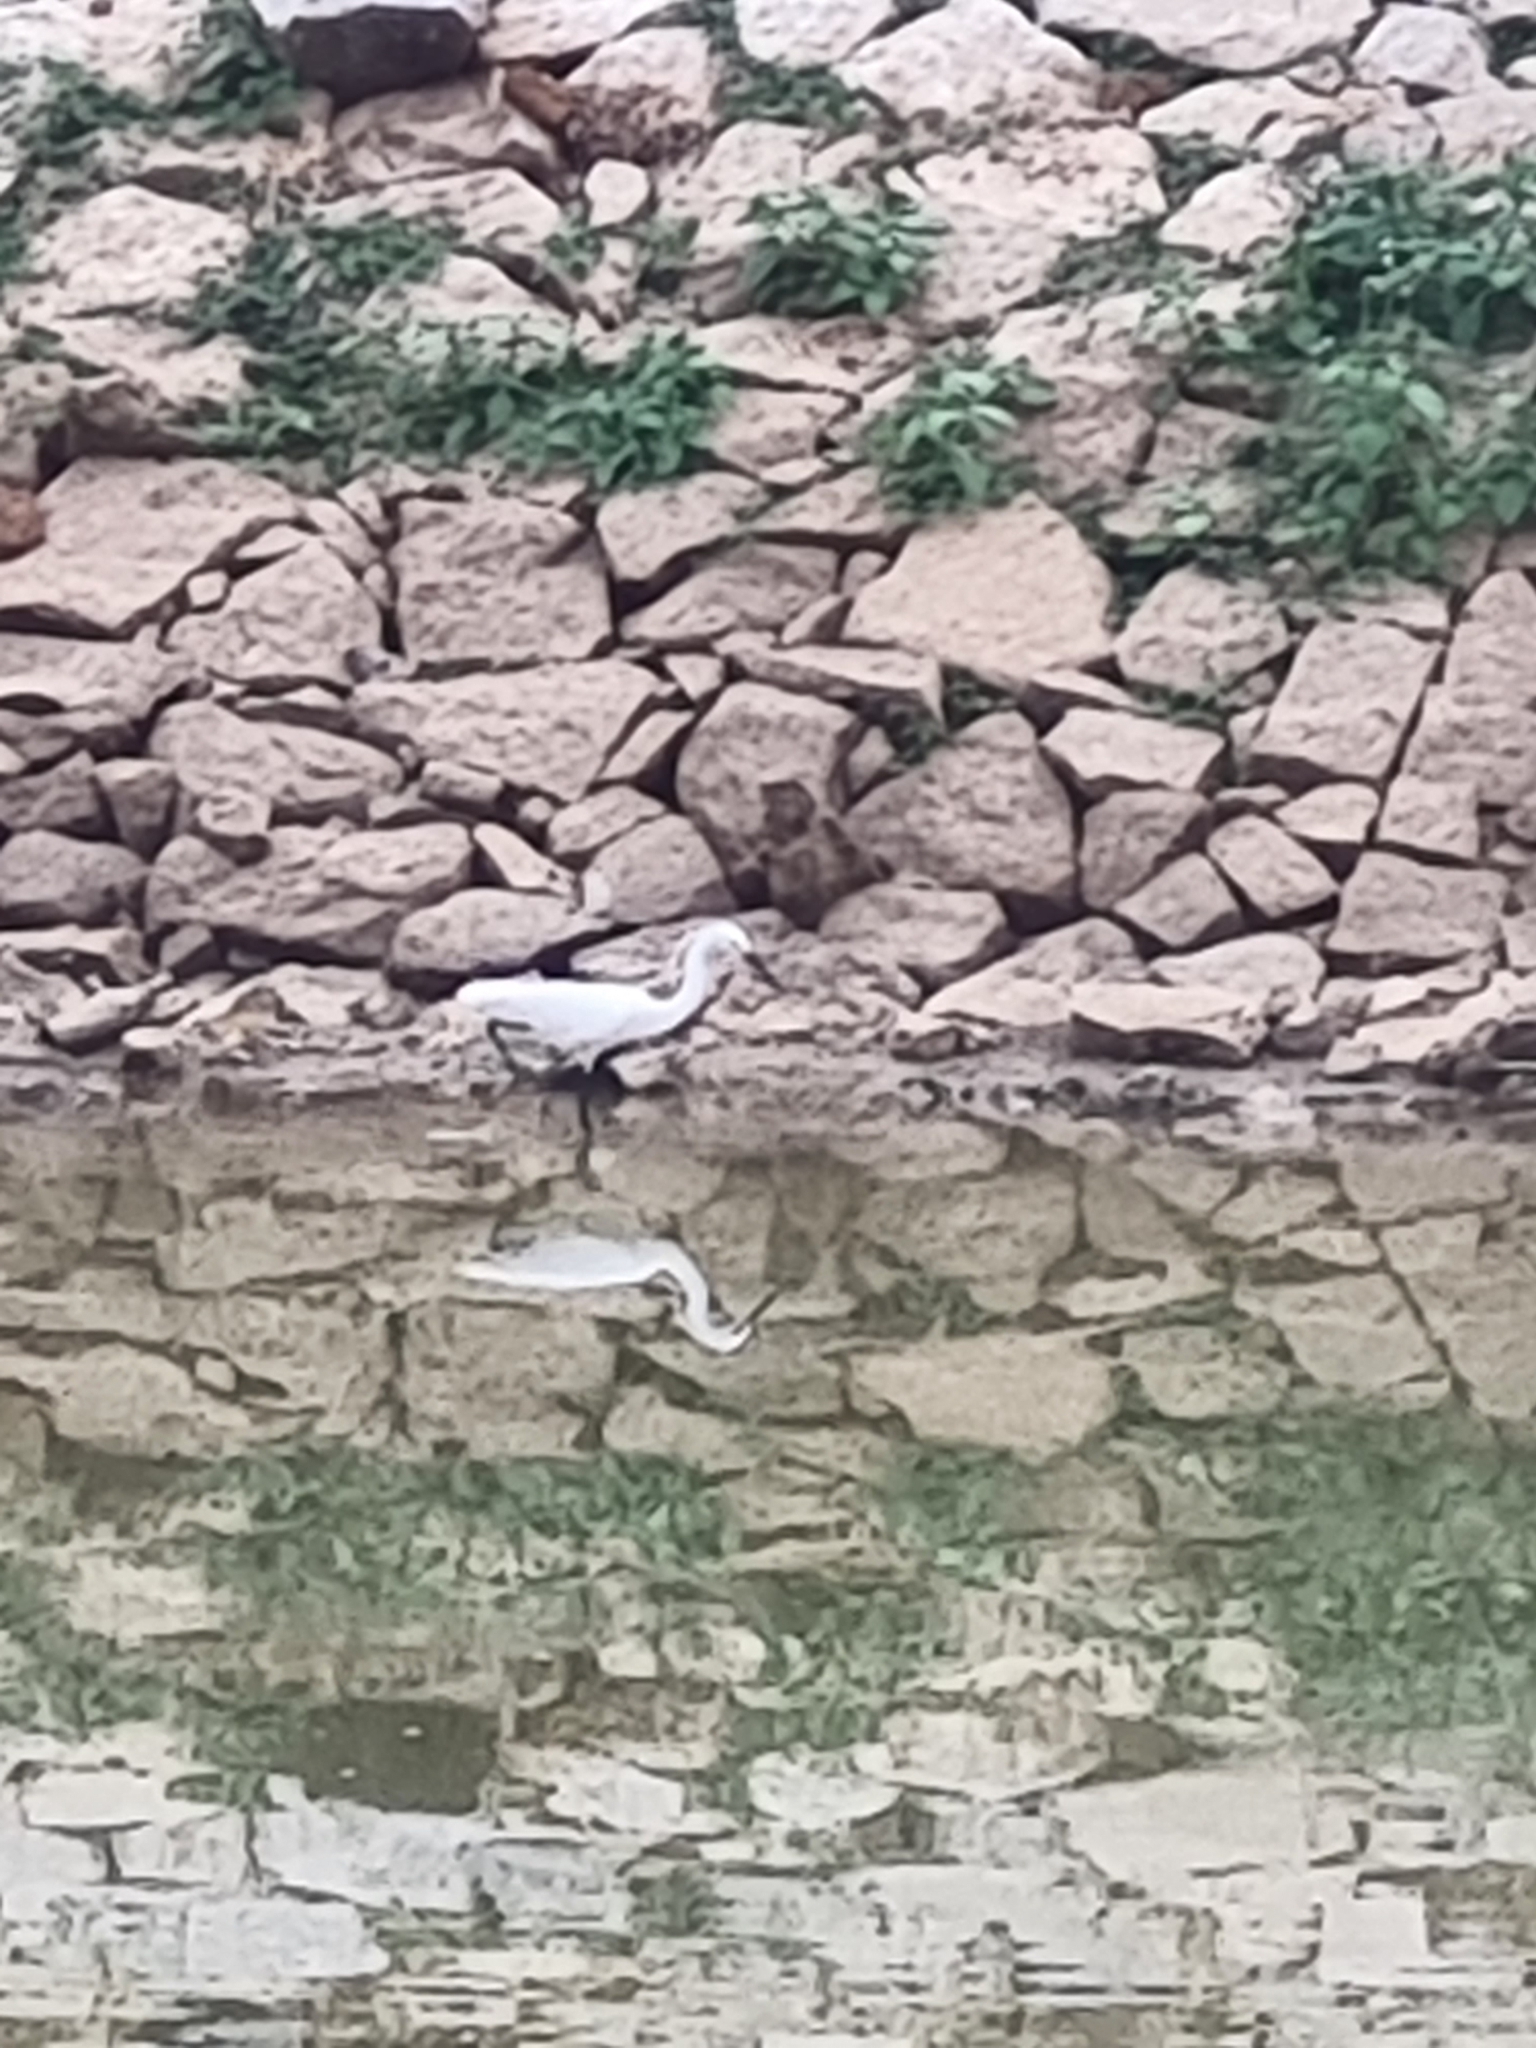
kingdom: Animalia
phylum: Chordata
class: Aves
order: Pelecaniformes
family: Ardeidae
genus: Egretta
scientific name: Egretta garzetta
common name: Little egret
